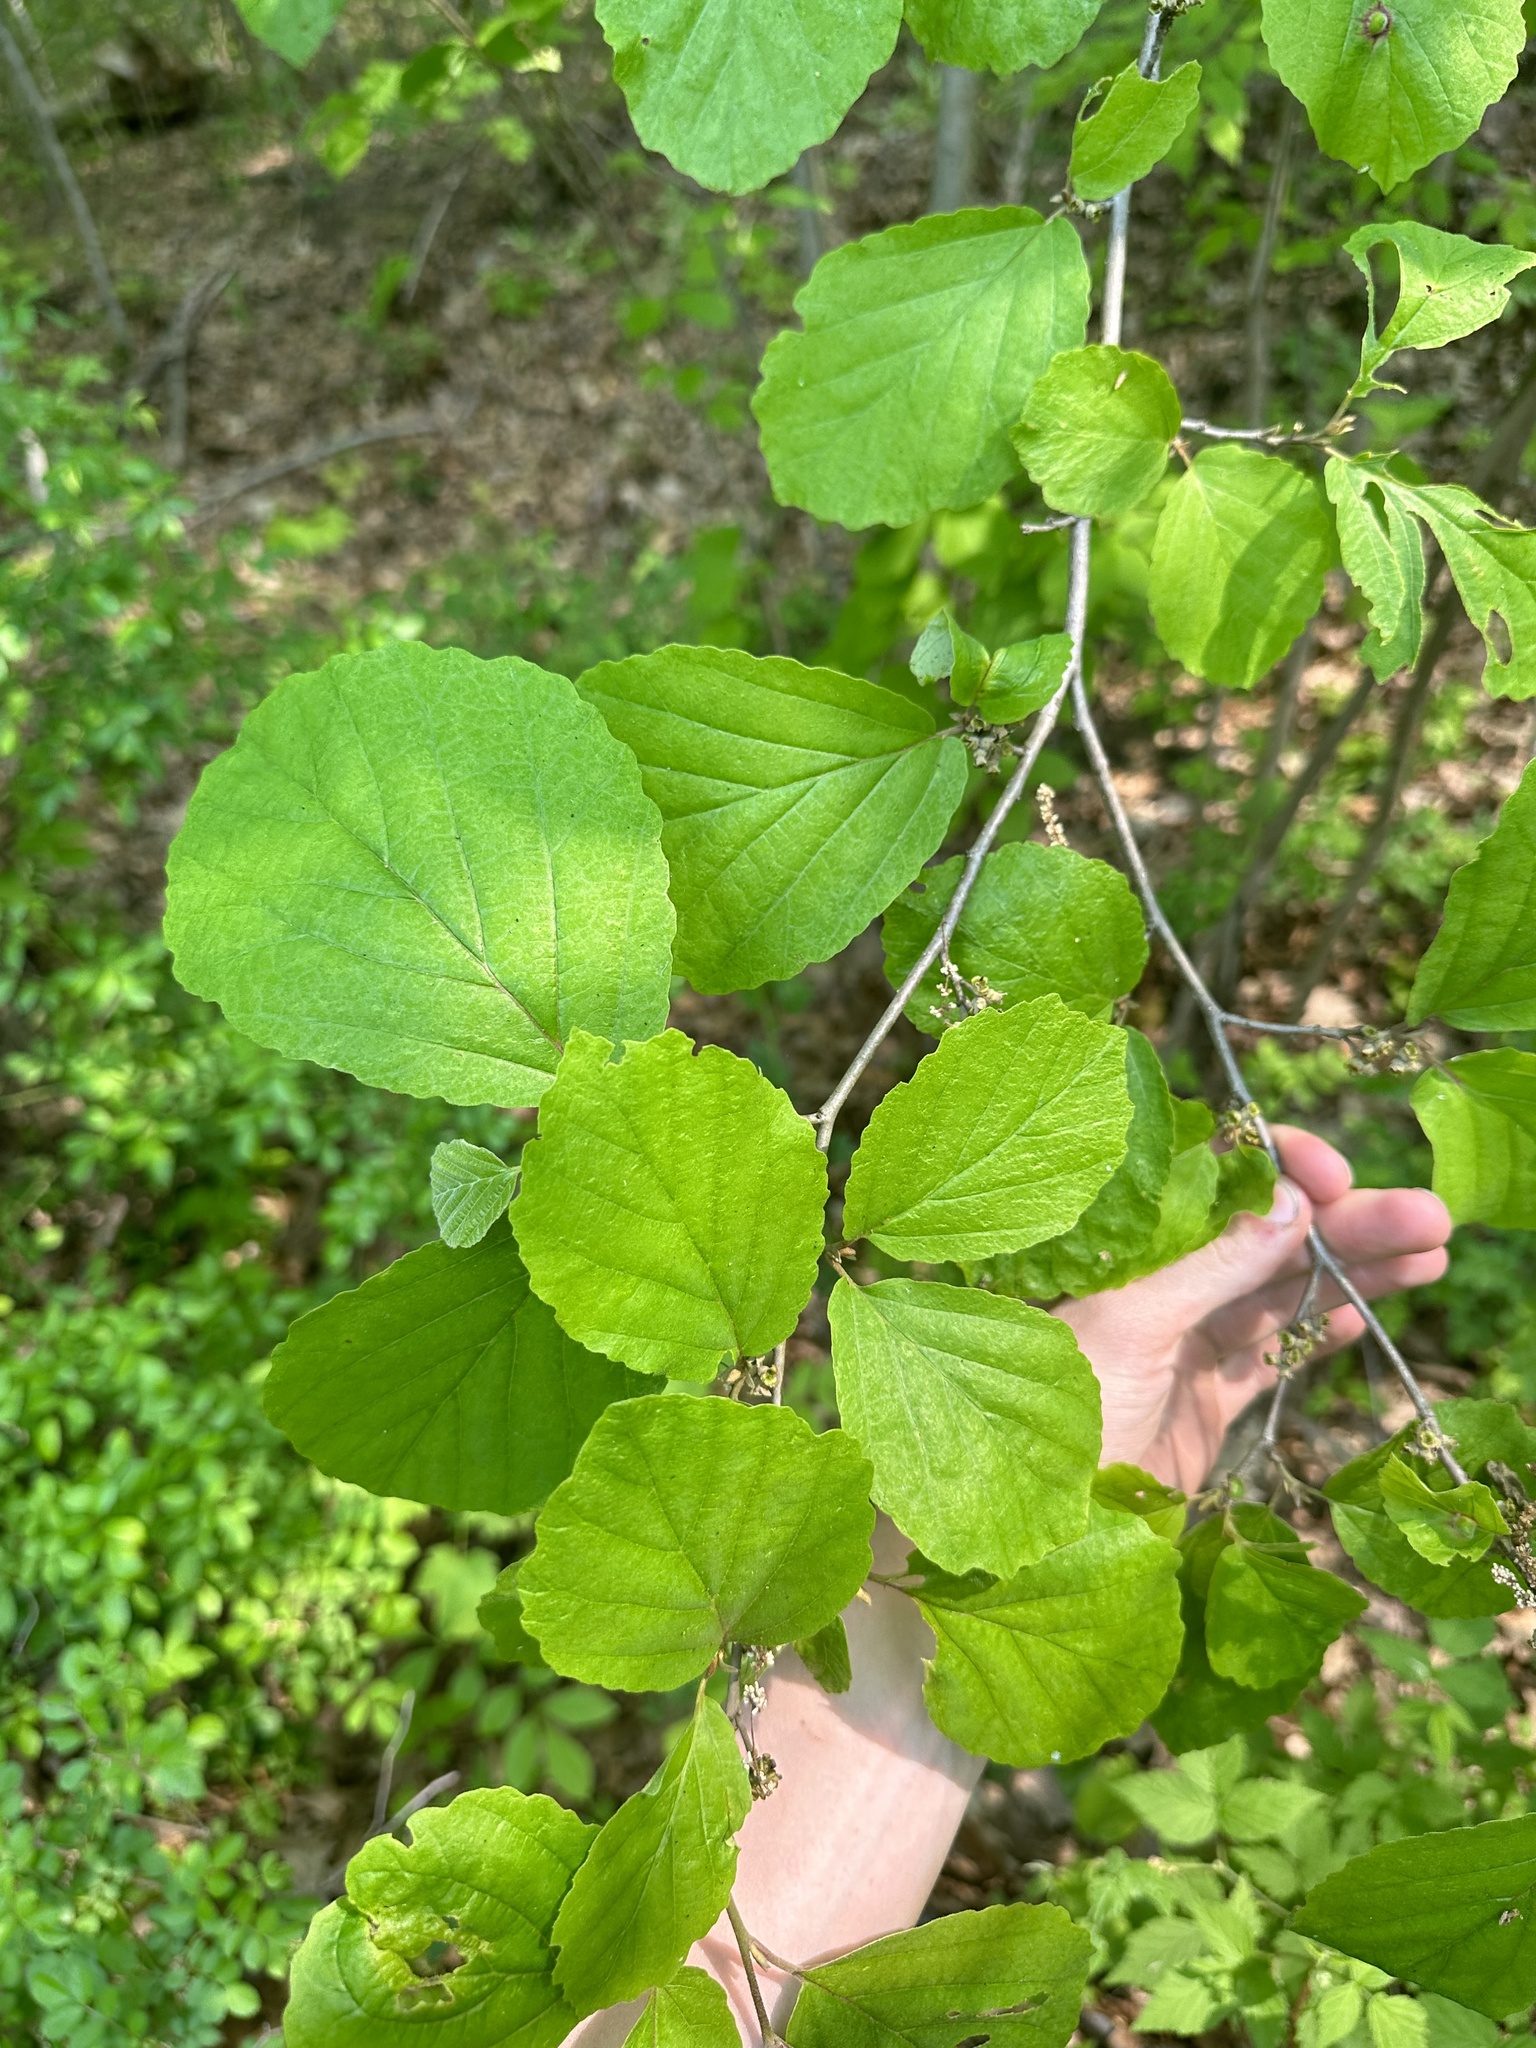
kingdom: Plantae
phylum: Tracheophyta
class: Magnoliopsida
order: Saxifragales
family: Hamamelidaceae
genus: Hamamelis
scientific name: Hamamelis virginiana
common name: Witch-hazel
